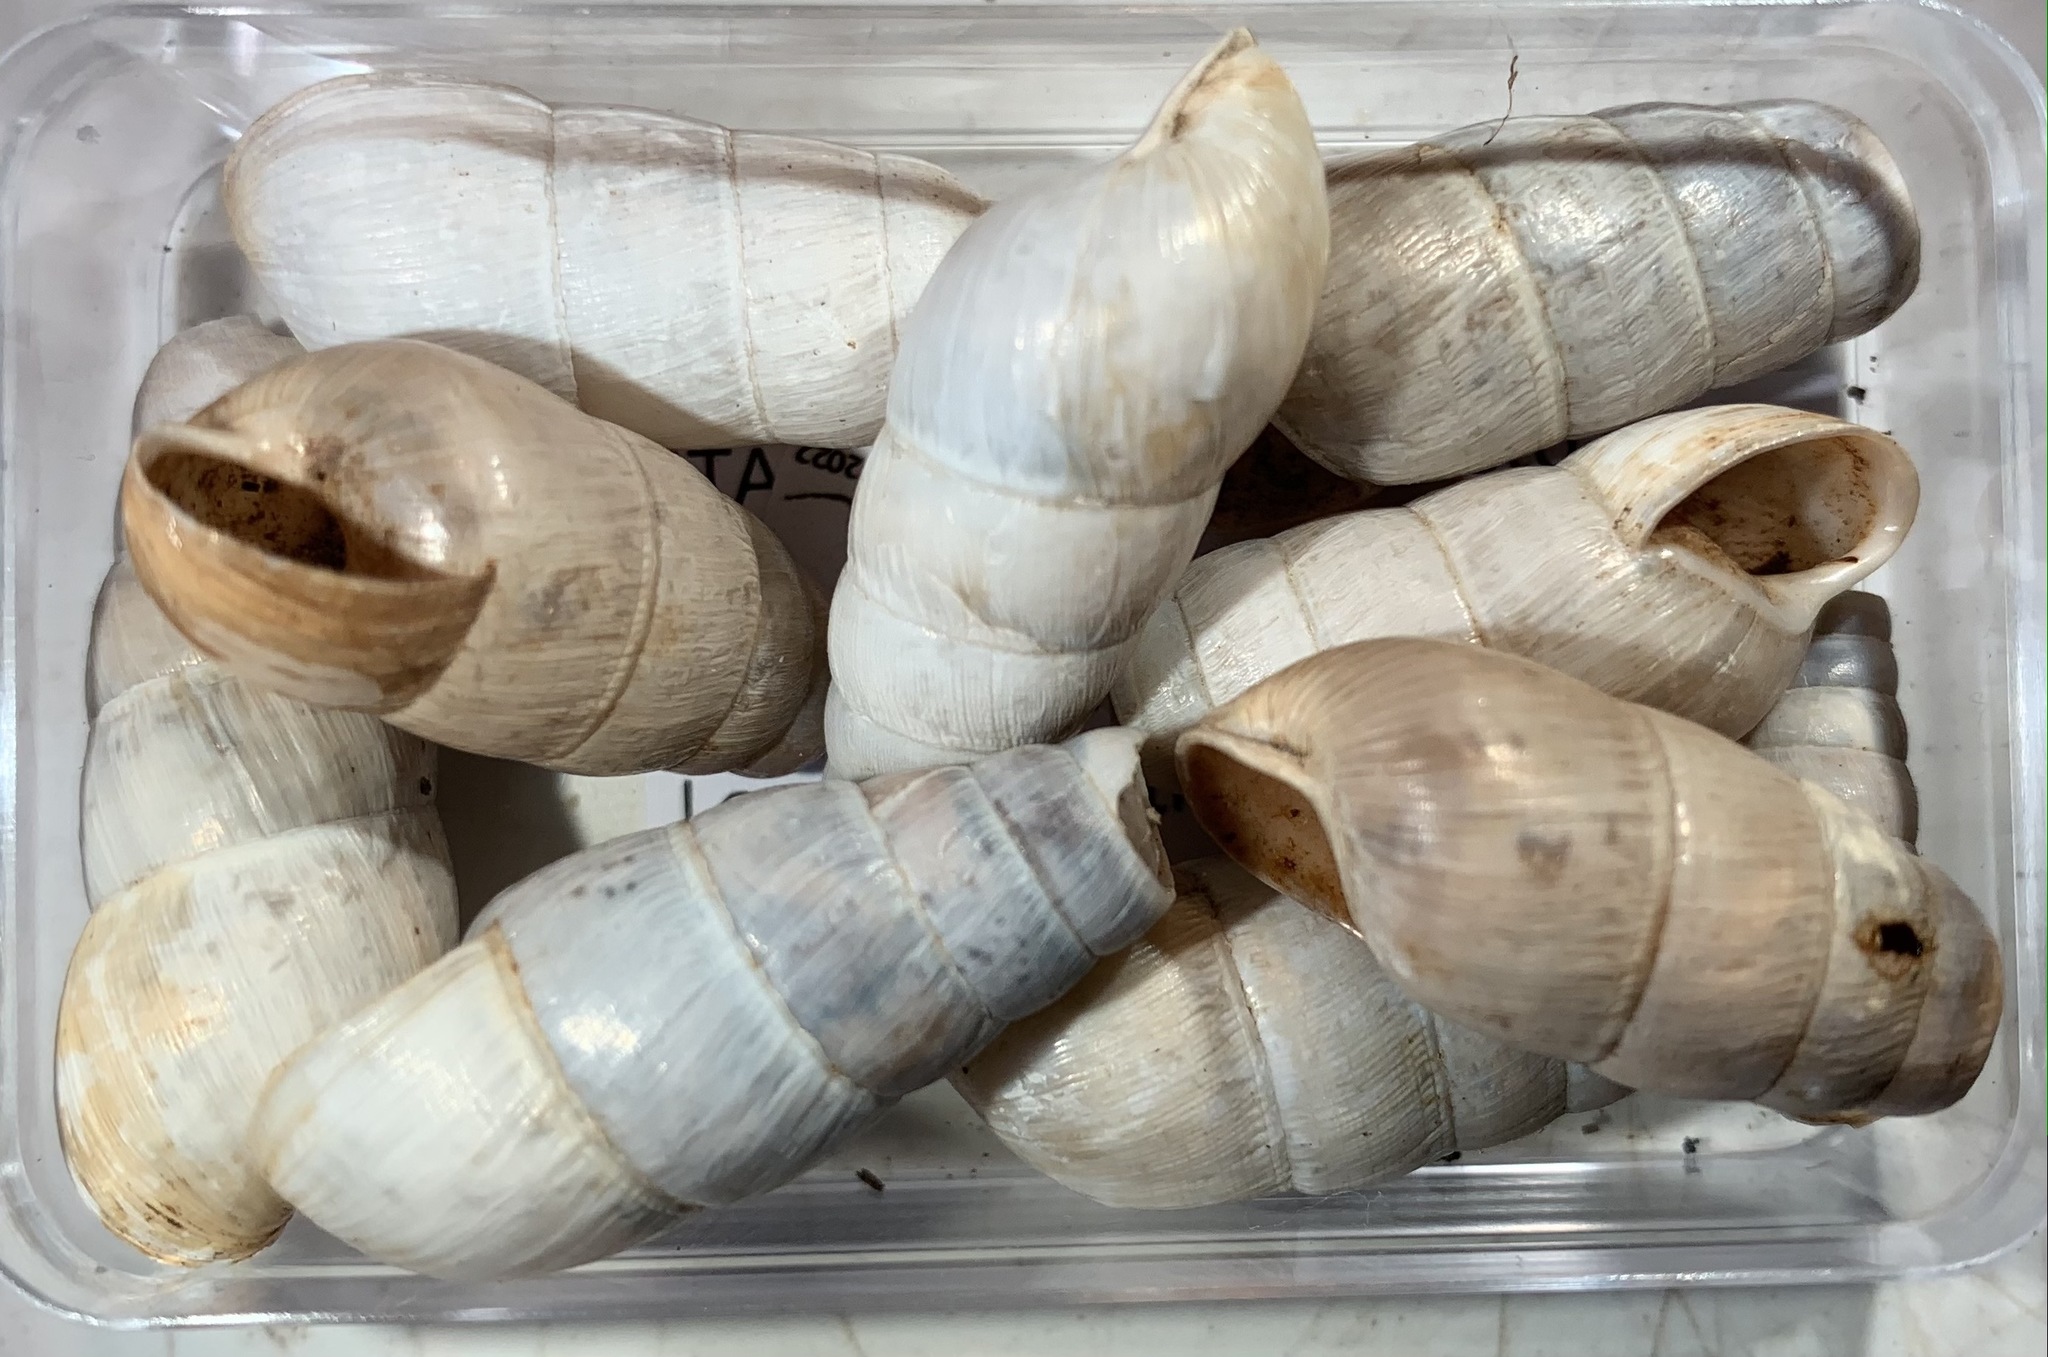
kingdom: Animalia
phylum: Mollusca
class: Gastropoda
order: Stylommatophora
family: Achatinidae
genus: Rumina
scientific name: Rumina decollata
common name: Decollate snail
